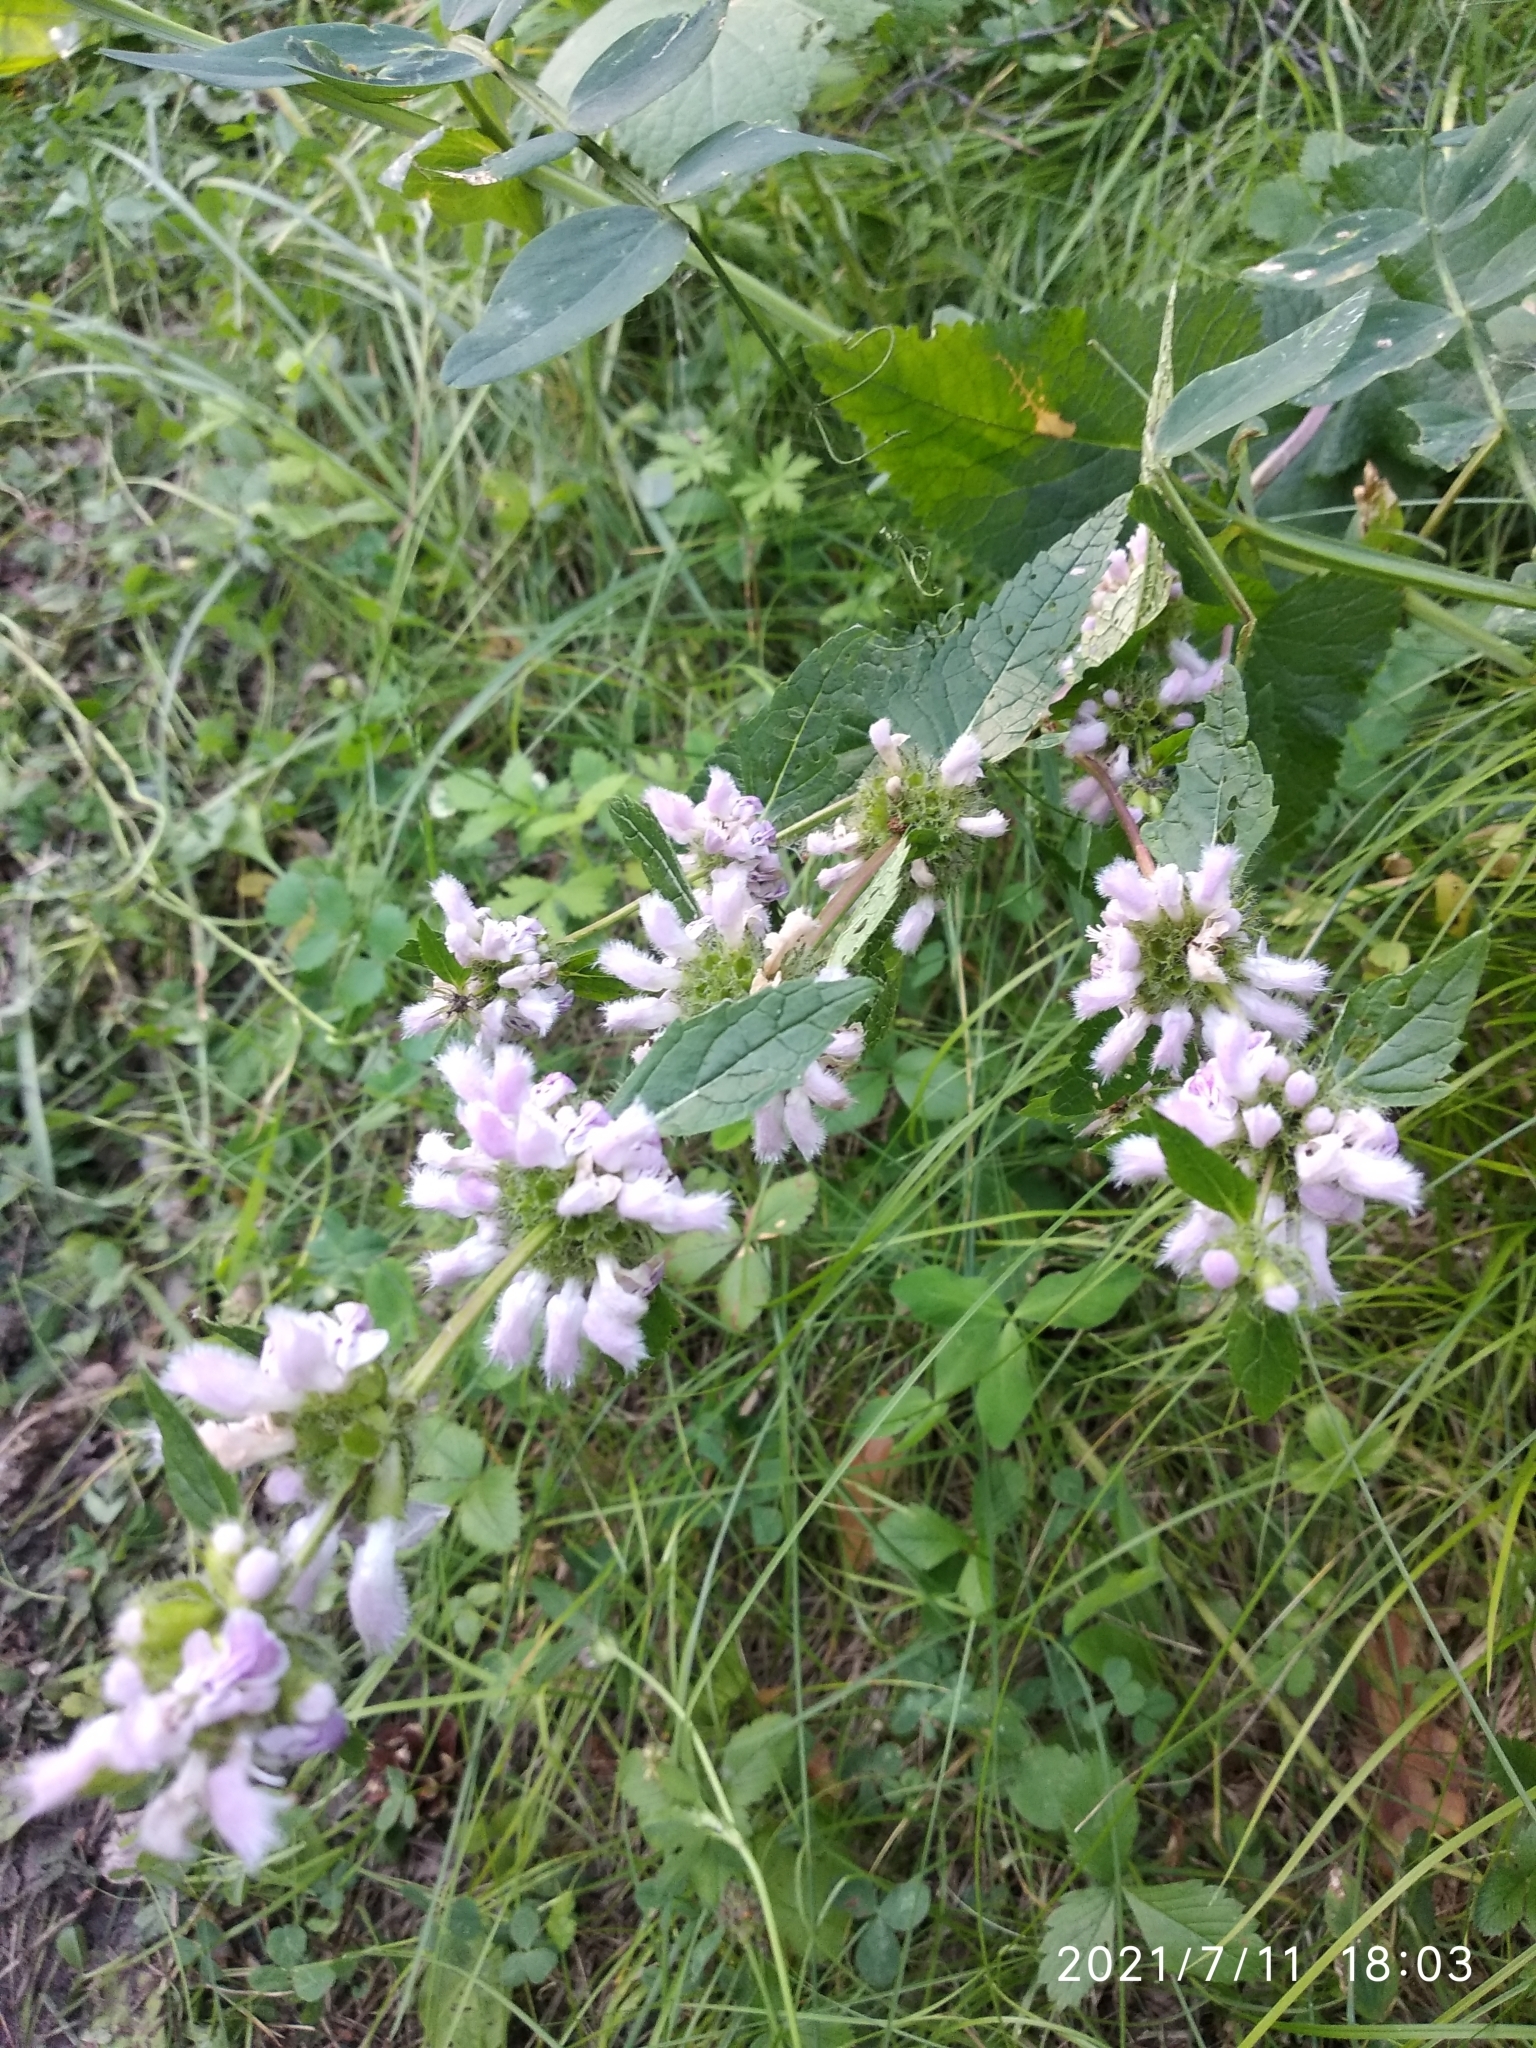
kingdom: Plantae
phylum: Tracheophyta
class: Magnoliopsida
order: Lamiales
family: Lamiaceae
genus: Phlomoides
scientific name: Phlomoides tuberosa
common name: Tuberous jerusalem sage
